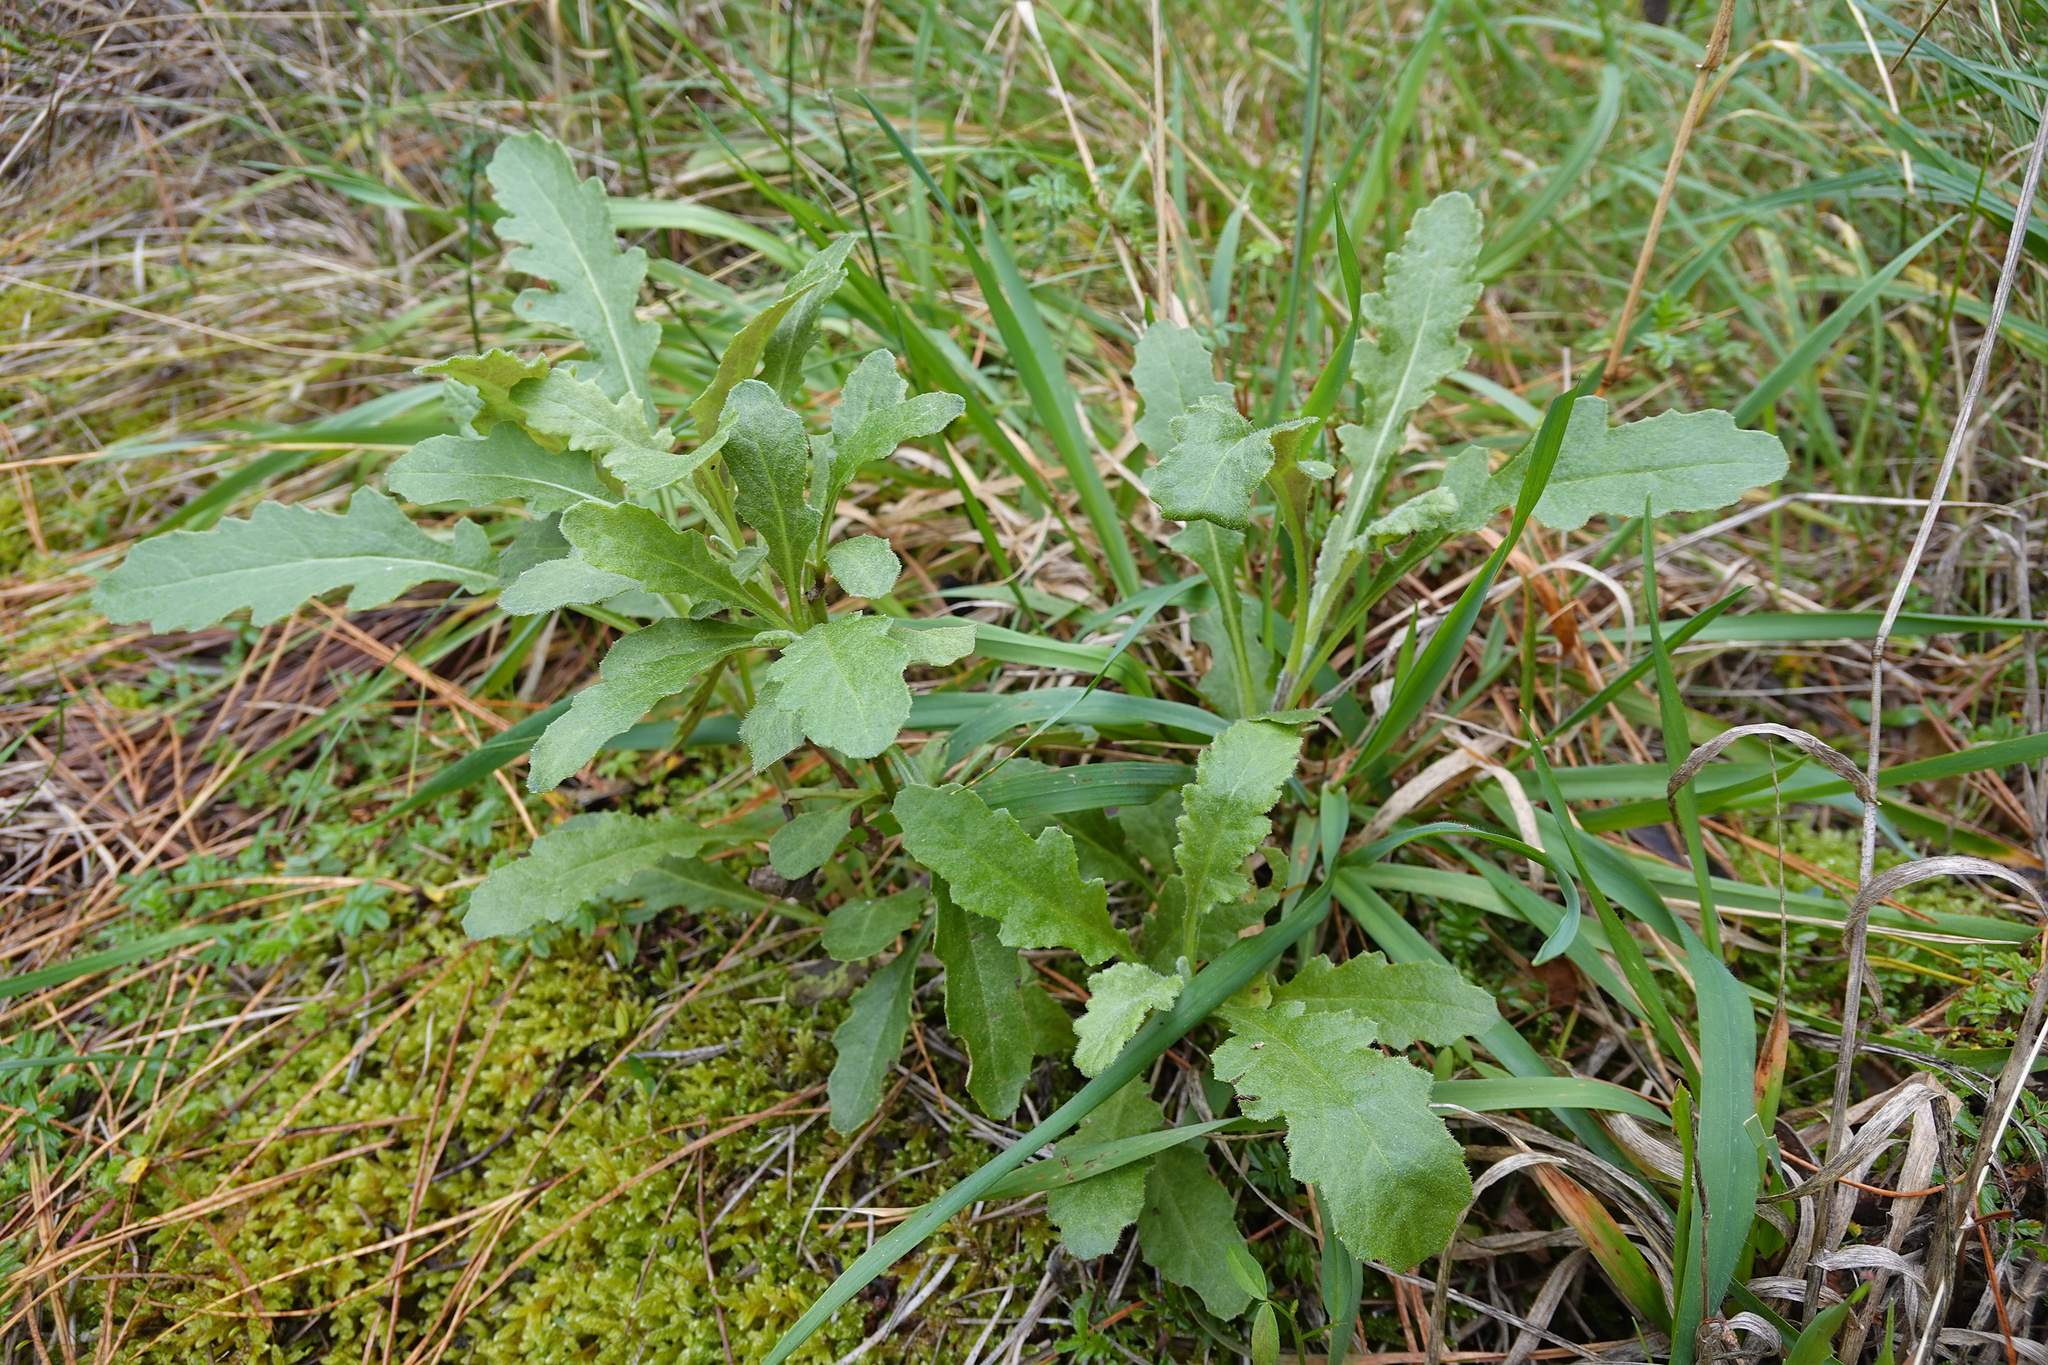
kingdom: Plantae
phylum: Tracheophyta
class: Magnoliopsida
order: Asterales
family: Asteraceae
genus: Senecio
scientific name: Senecio glomeratus
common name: Cutleaf burnweed
